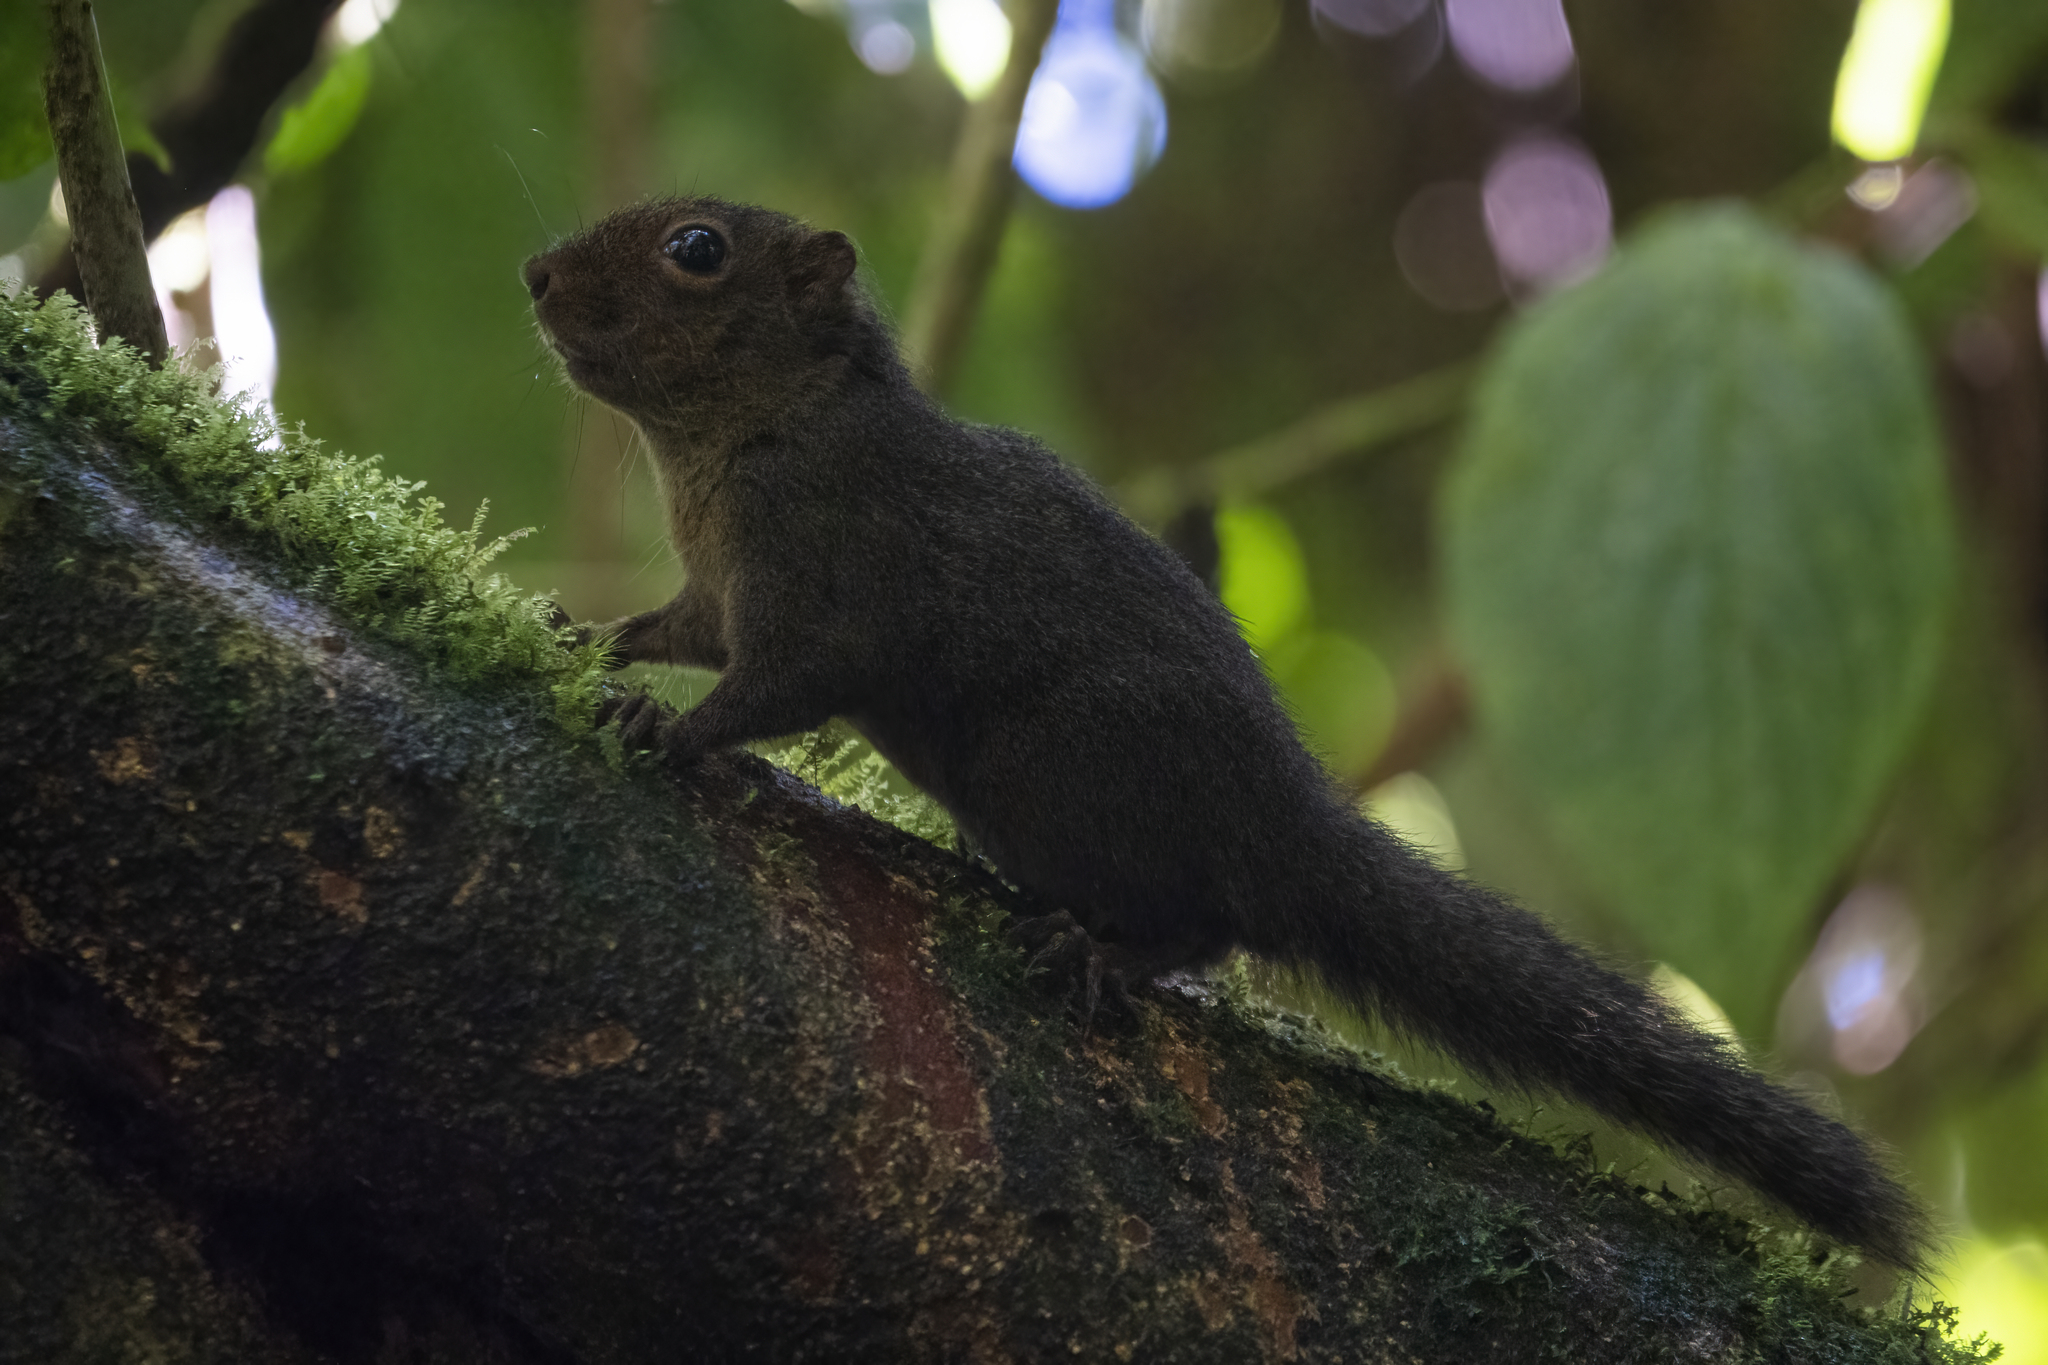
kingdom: Animalia
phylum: Chordata
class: Mammalia
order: Rodentia
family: Sciuridae
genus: Microsciurus
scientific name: Microsciurus alfari
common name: Central american dwarf squirrel
